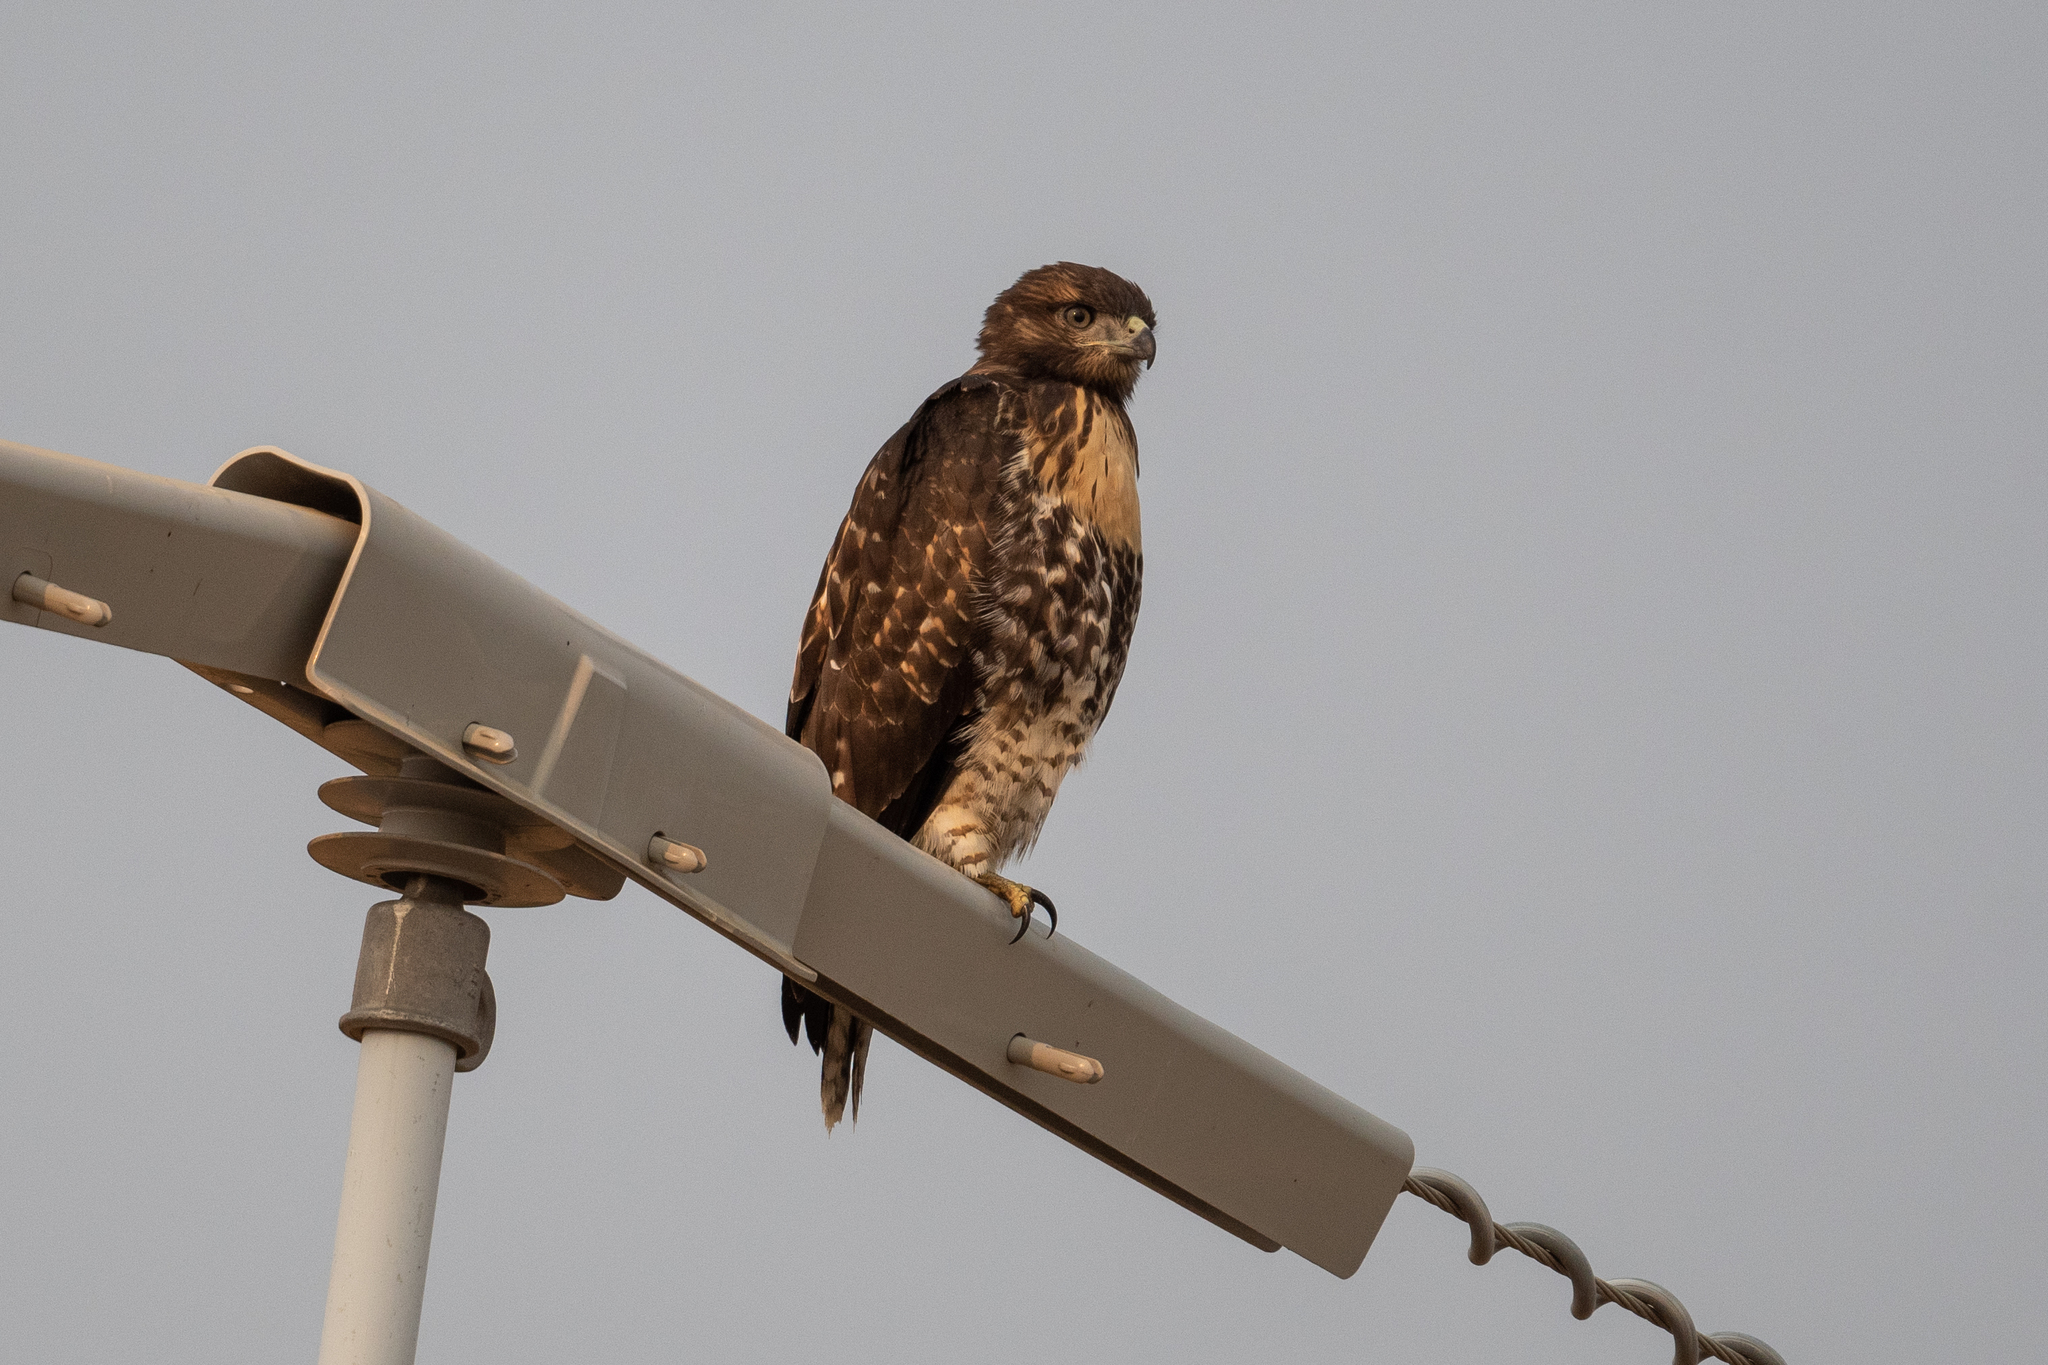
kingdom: Animalia
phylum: Chordata
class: Aves
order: Accipitriformes
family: Accipitridae
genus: Buteo
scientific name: Buteo jamaicensis
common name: Red-tailed hawk
